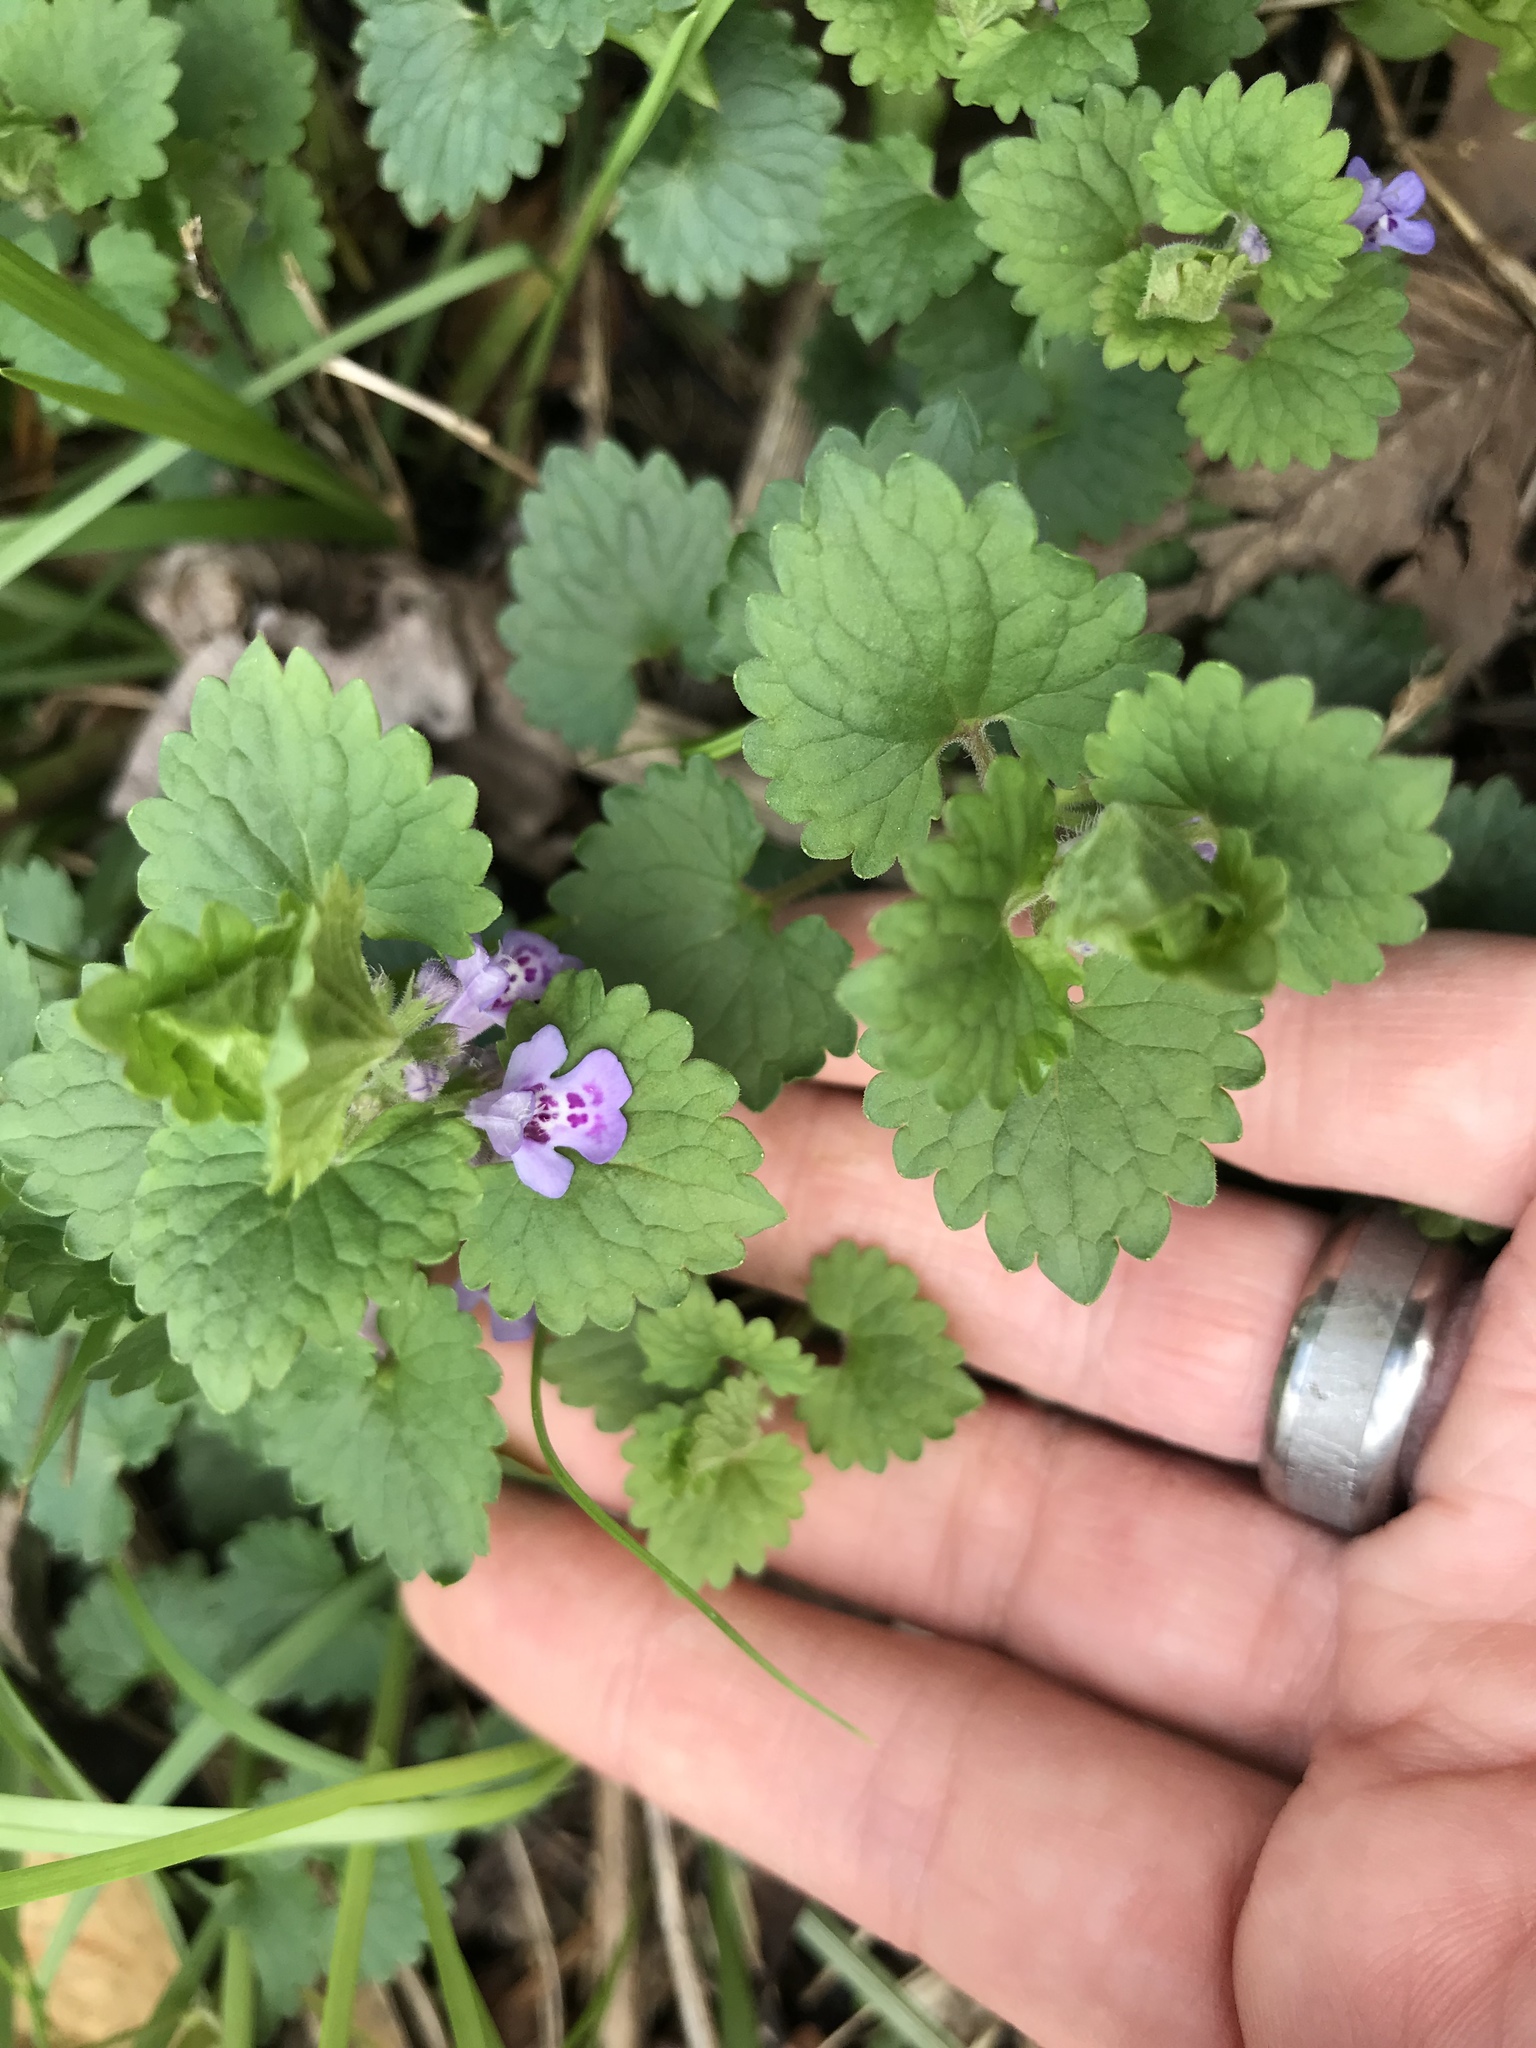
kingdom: Plantae
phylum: Tracheophyta
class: Magnoliopsida
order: Lamiales
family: Lamiaceae
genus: Glechoma
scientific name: Glechoma hederacea
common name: Ground ivy
